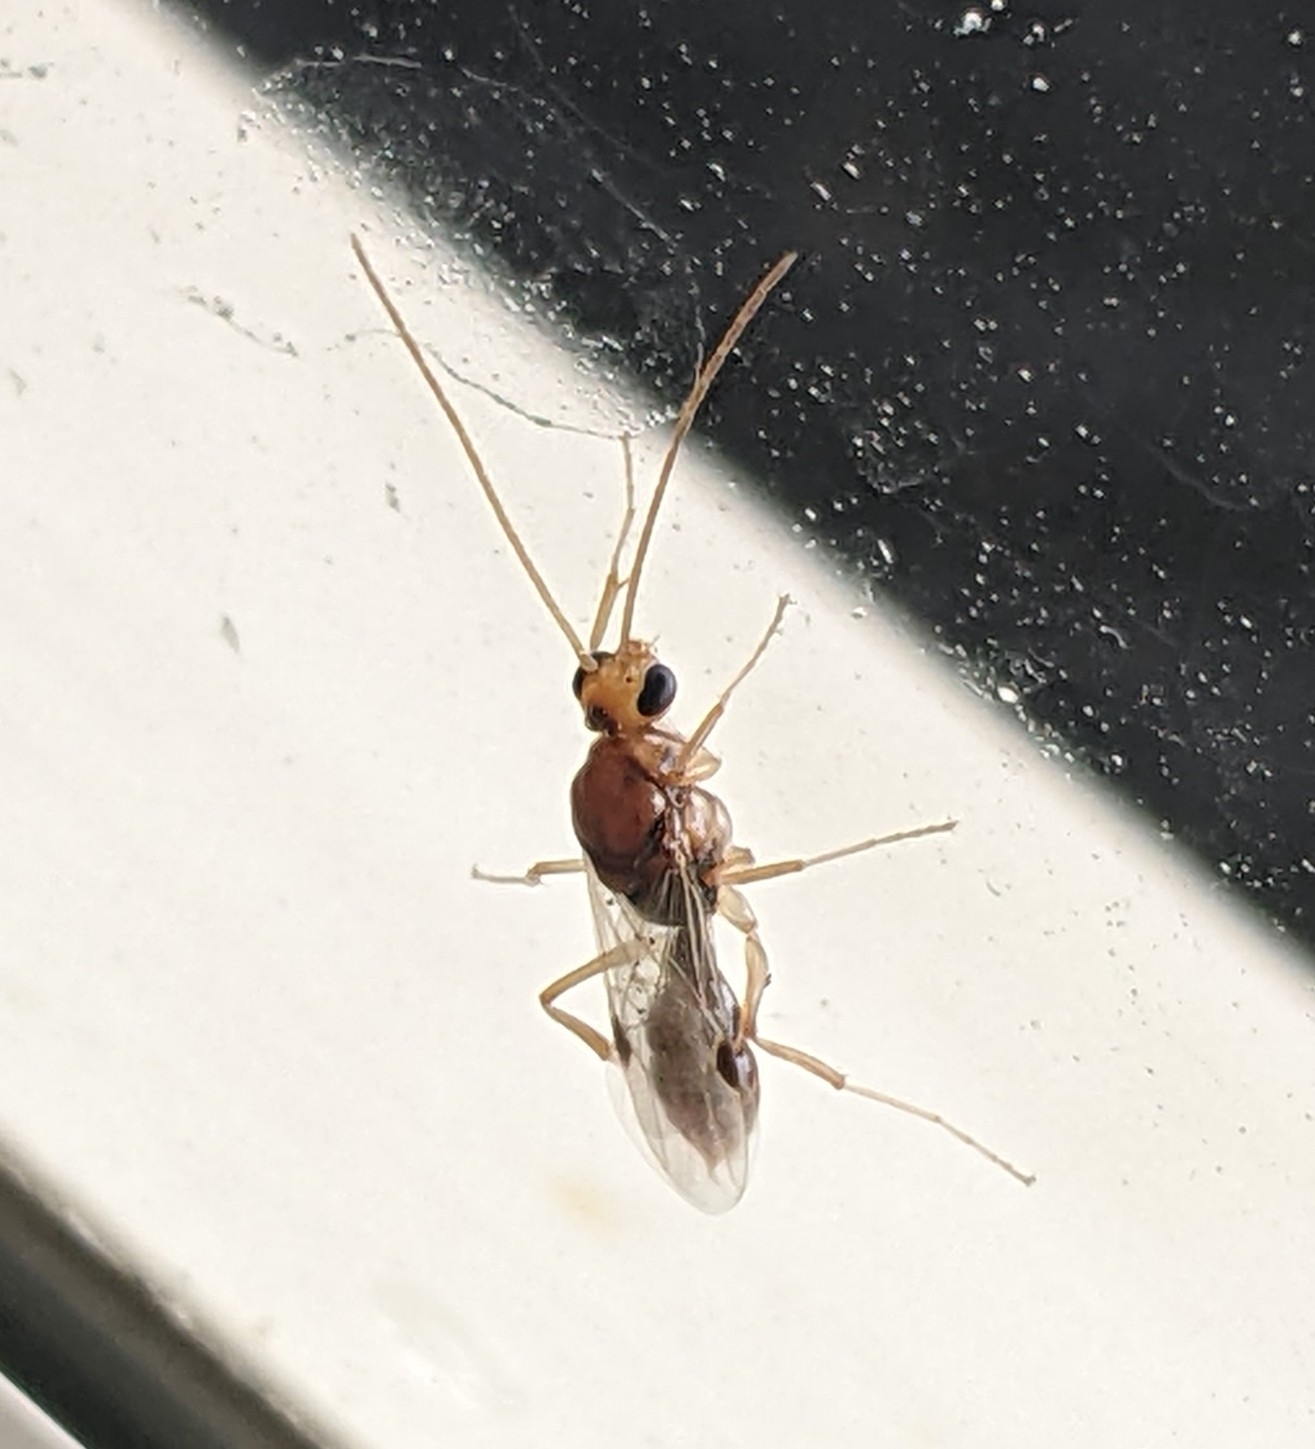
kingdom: Animalia
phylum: Arthropoda
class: Insecta
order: Hymenoptera
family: Formicidae
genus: Odontomachus
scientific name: Odontomachus ruginodis
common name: Trapjaw ant
